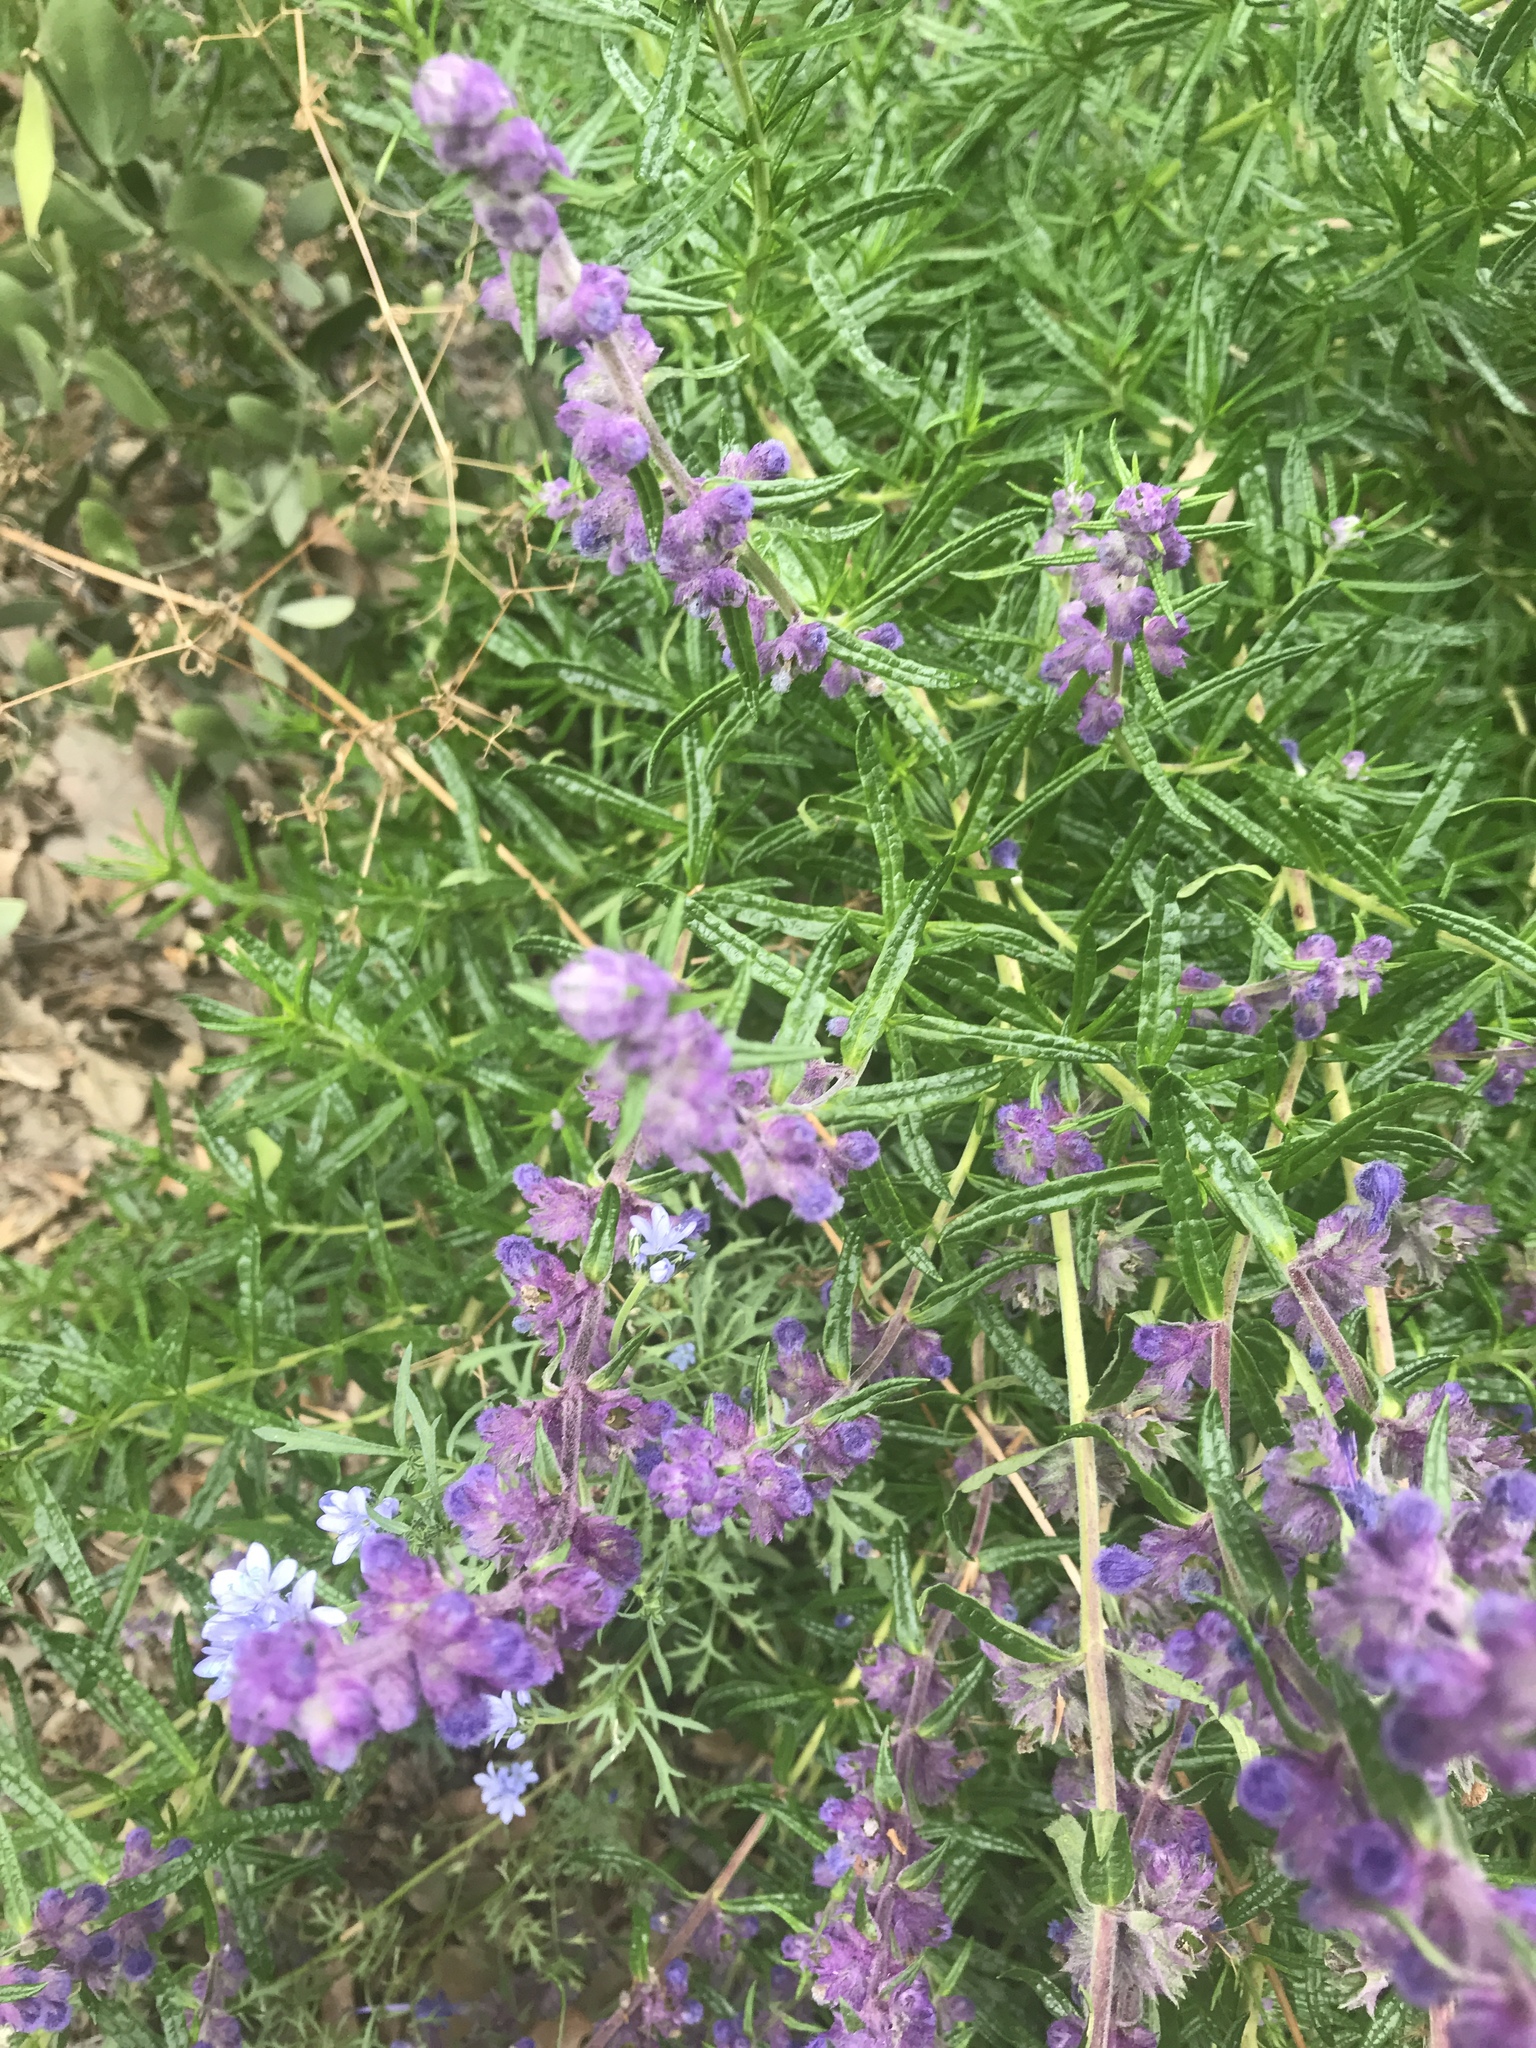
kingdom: Plantae
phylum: Tracheophyta
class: Magnoliopsida
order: Lamiales
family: Lamiaceae
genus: Trichostema
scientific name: Trichostema lanatum
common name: Woolly bluecurls
